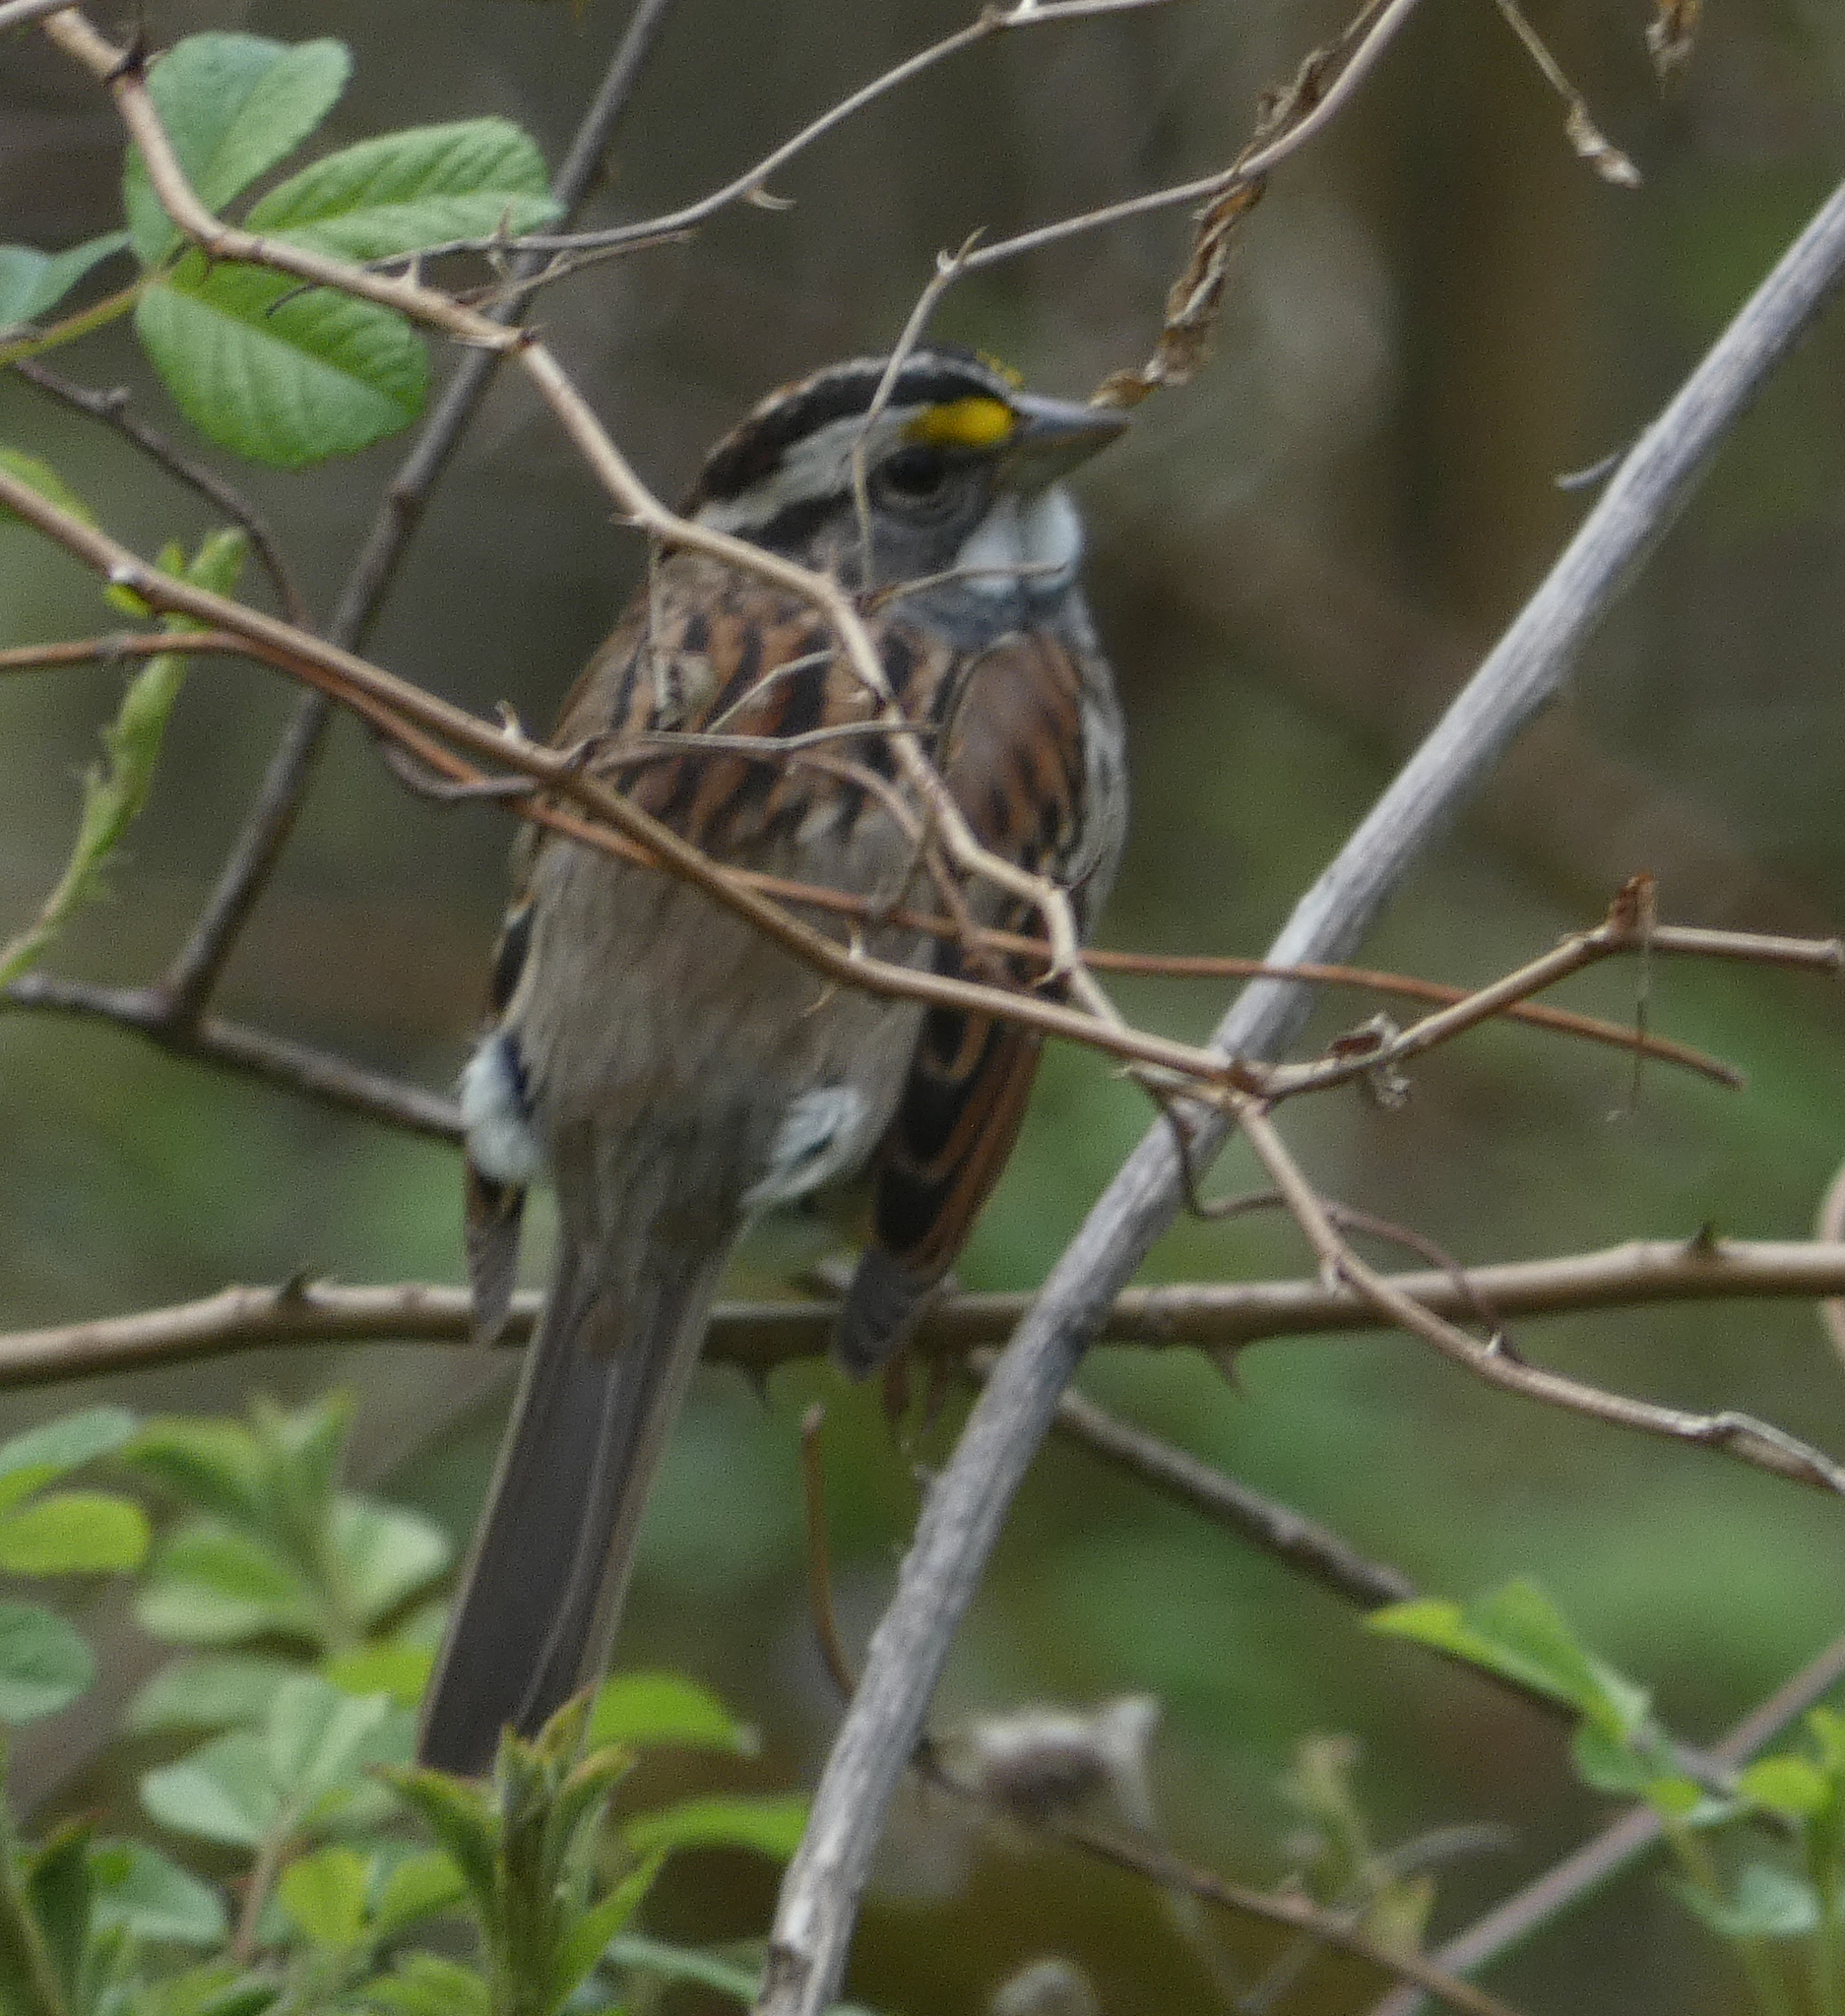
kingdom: Animalia
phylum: Chordata
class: Aves
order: Passeriformes
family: Passerellidae
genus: Zonotrichia
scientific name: Zonotrichia albicollis
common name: White-throated sparrow
